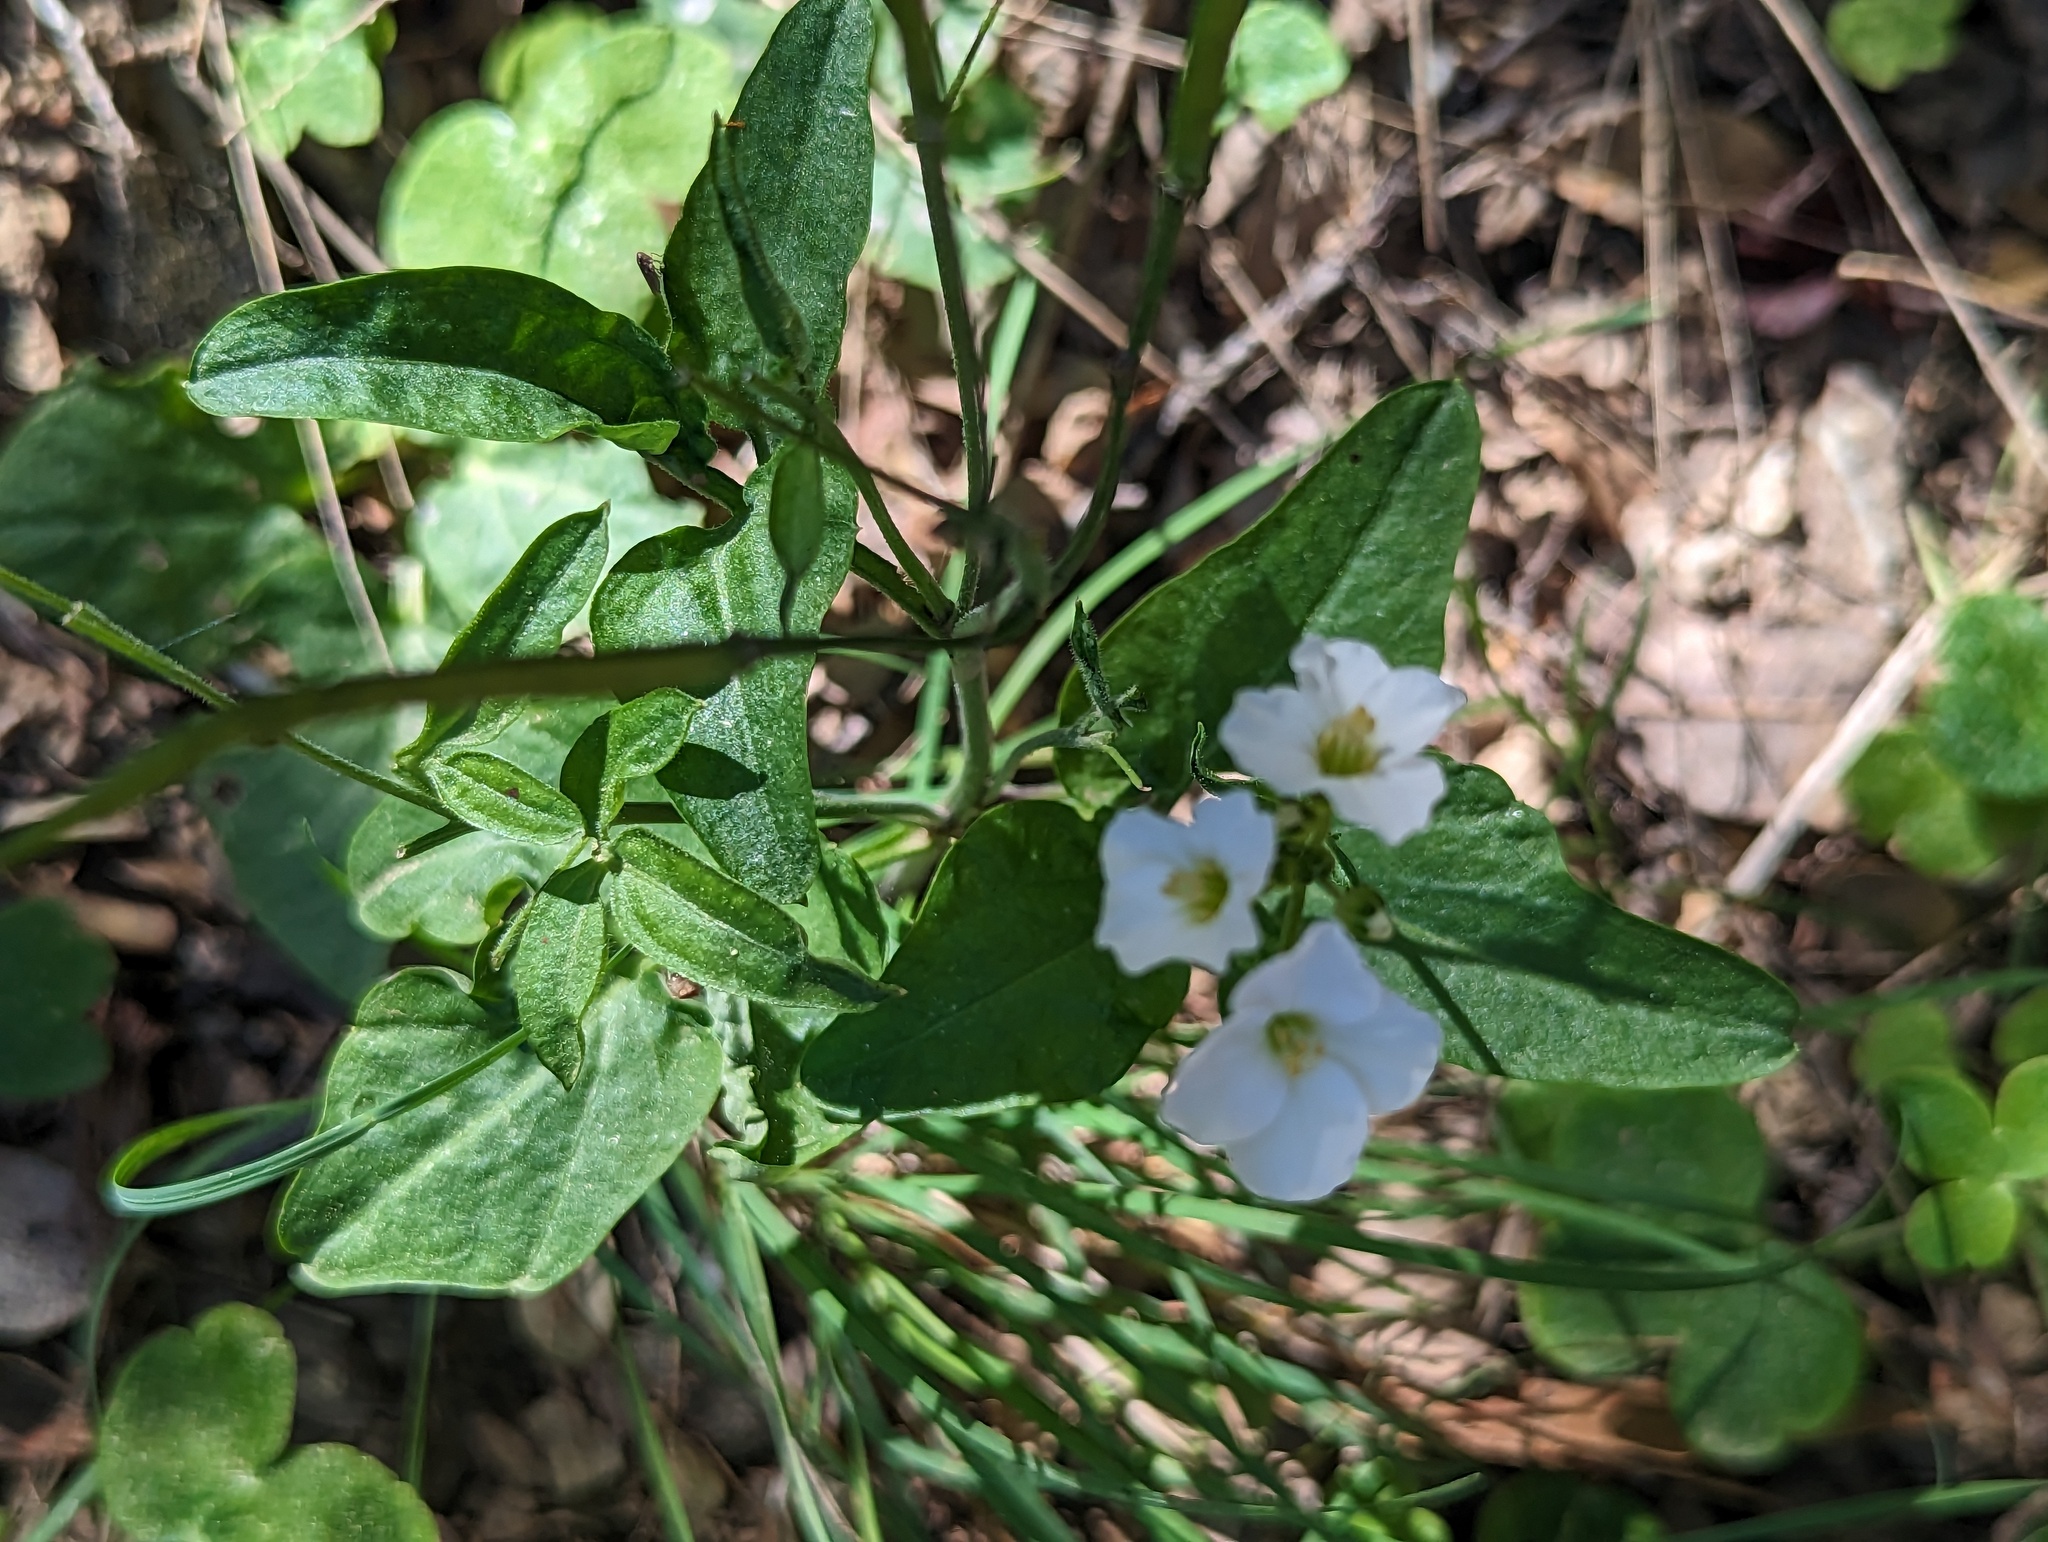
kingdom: Plantae
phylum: Tracheophyta
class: Magnoliopsida
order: Brassicales
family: Brassicaceae
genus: Cardamine
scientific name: Cardamine californica
